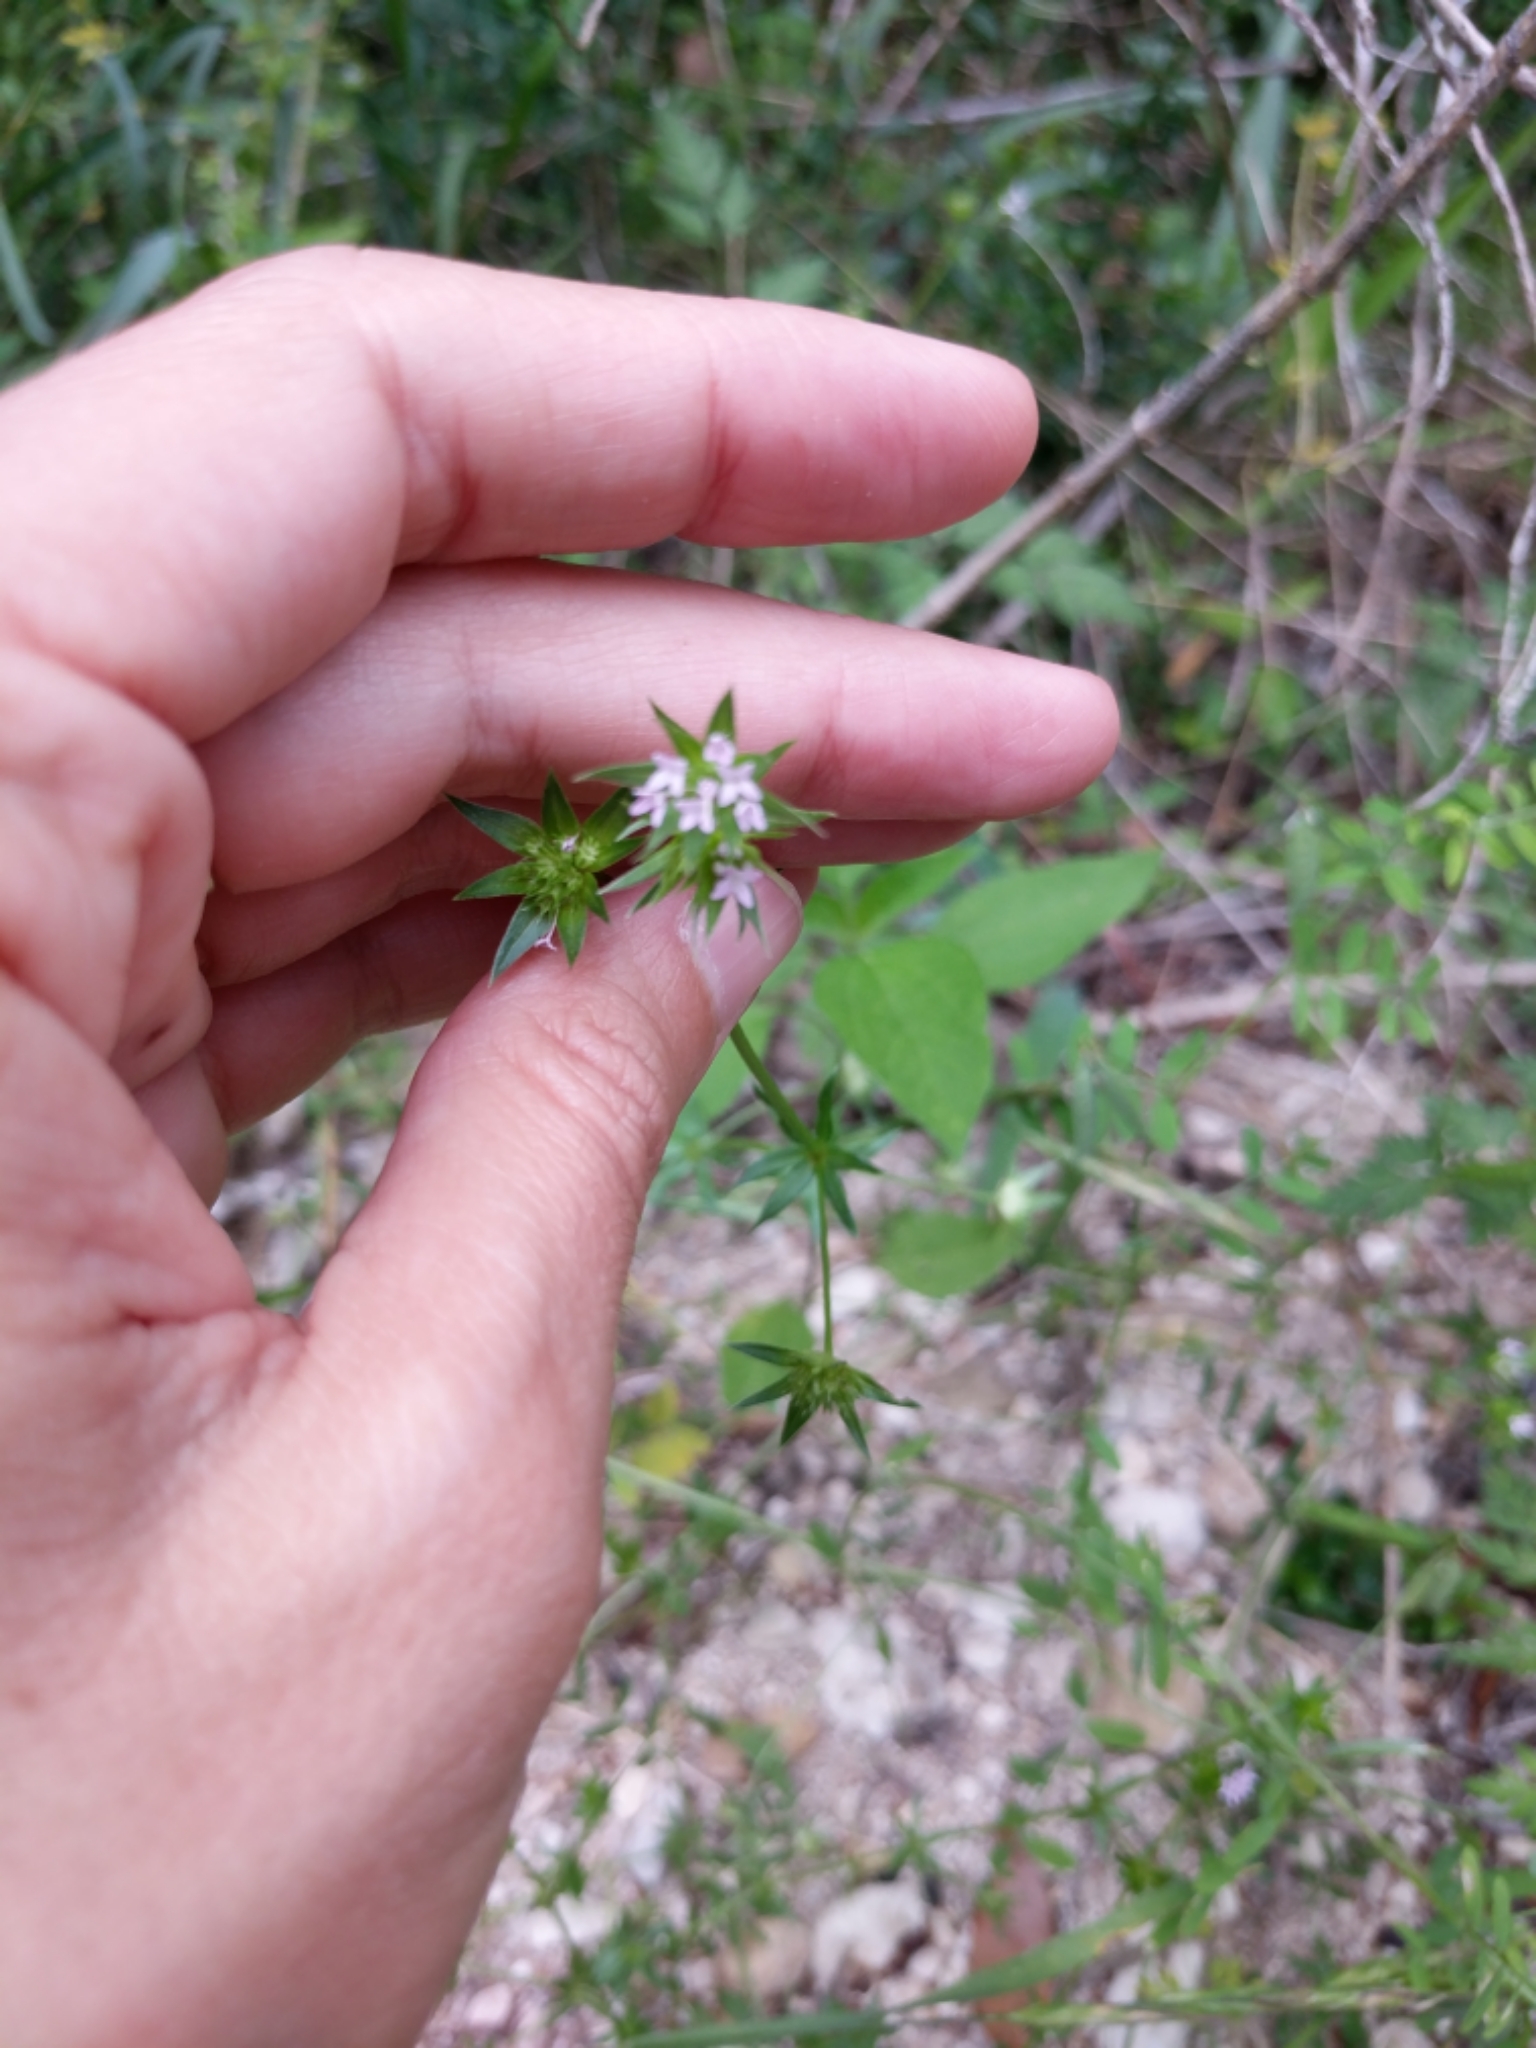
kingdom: Plantae
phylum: Tracheophyta
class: Magnoliopsida
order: Gentianales
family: Rubiaceae
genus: Sherardia
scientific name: Sherardia arvensis
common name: Field madder
